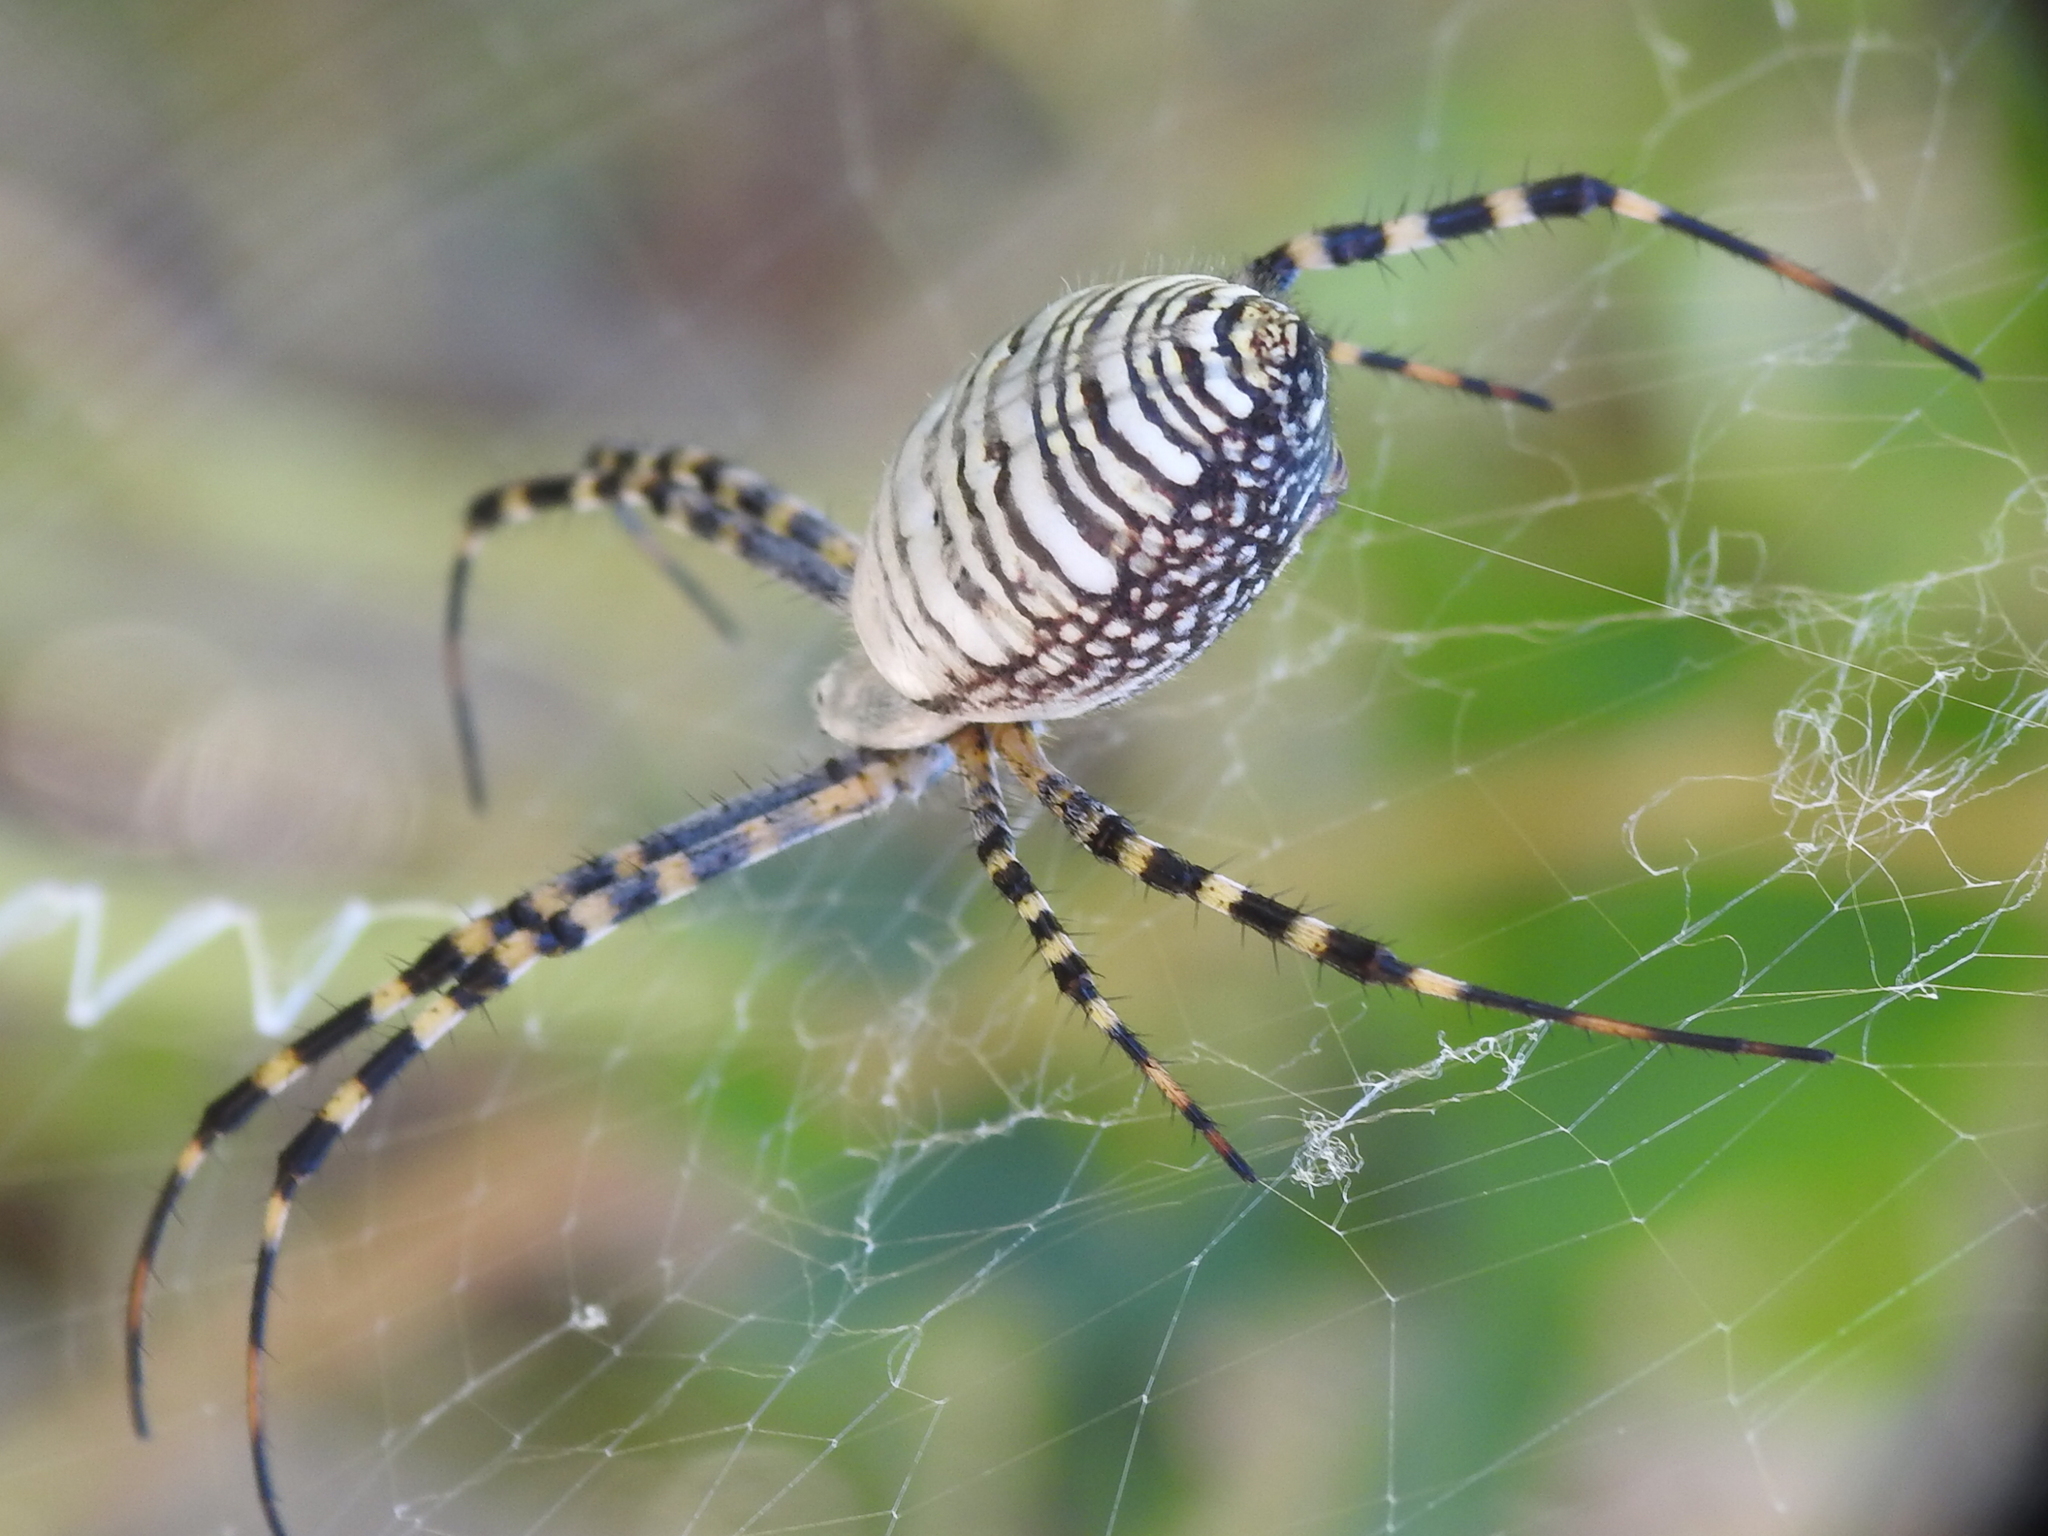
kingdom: Animalia
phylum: Arthropoda
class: Arachnida
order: Araneae
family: Araneidae
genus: Argiope
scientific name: Argiope trifasciata
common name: Banded garden spider
